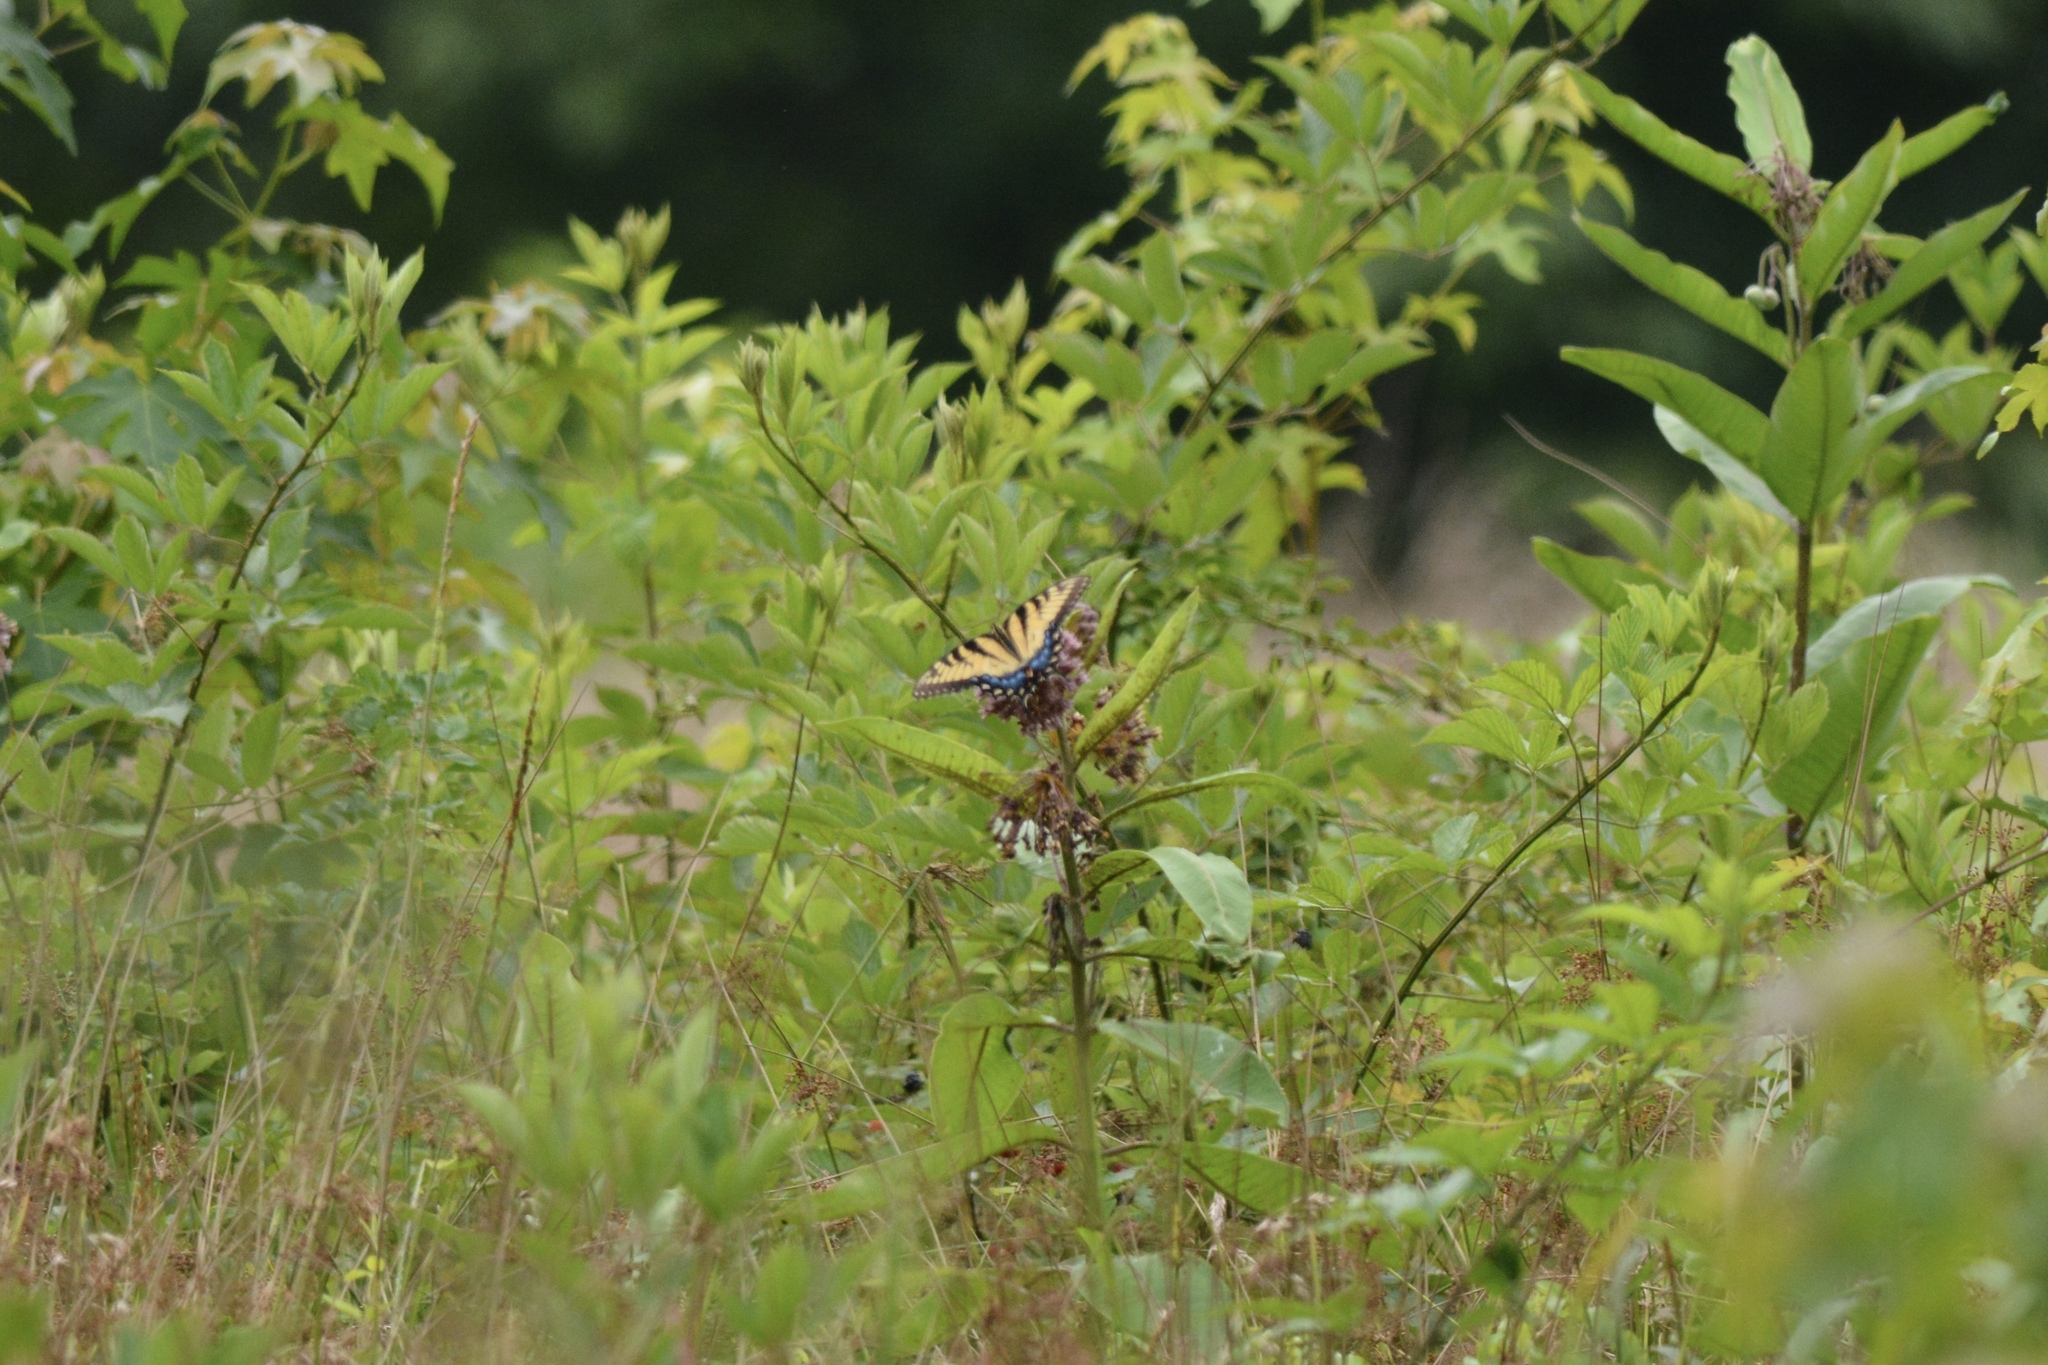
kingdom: Animalia
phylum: Arthropoda
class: Insecta
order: Lepidoptera
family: Papilionidae
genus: Papilio
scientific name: Papilio glaucus
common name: Tiger swallowtail
